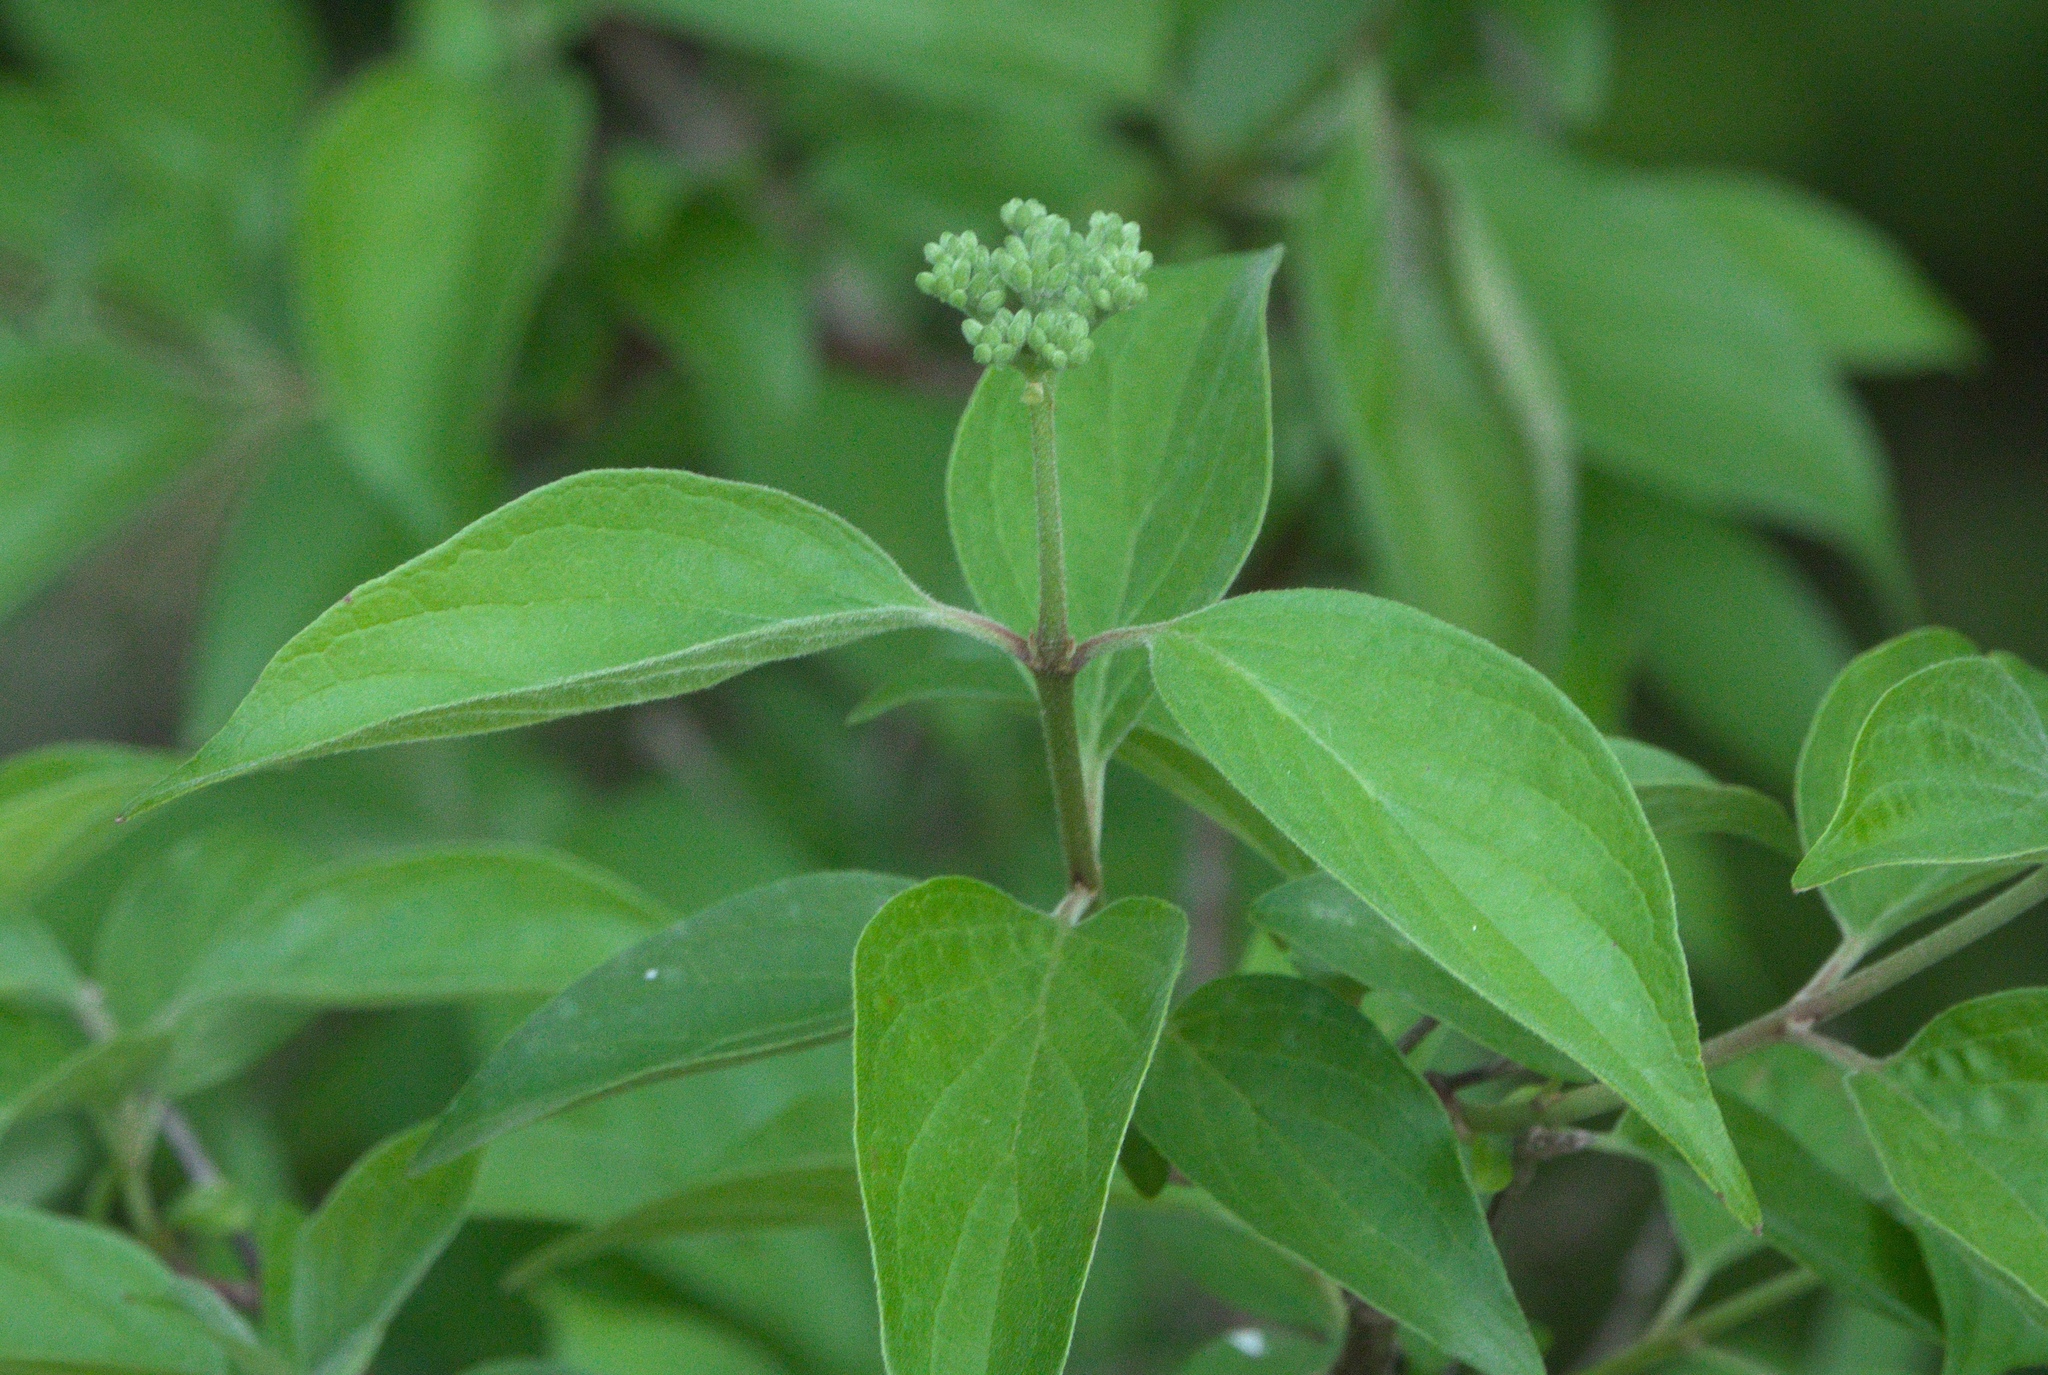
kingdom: Plantae
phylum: Tracheophyta
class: Magnoliopsida
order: Cornales
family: Cornaceae
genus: Cornus
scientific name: Cornus drummondii
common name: Rough-leaf dogwood
